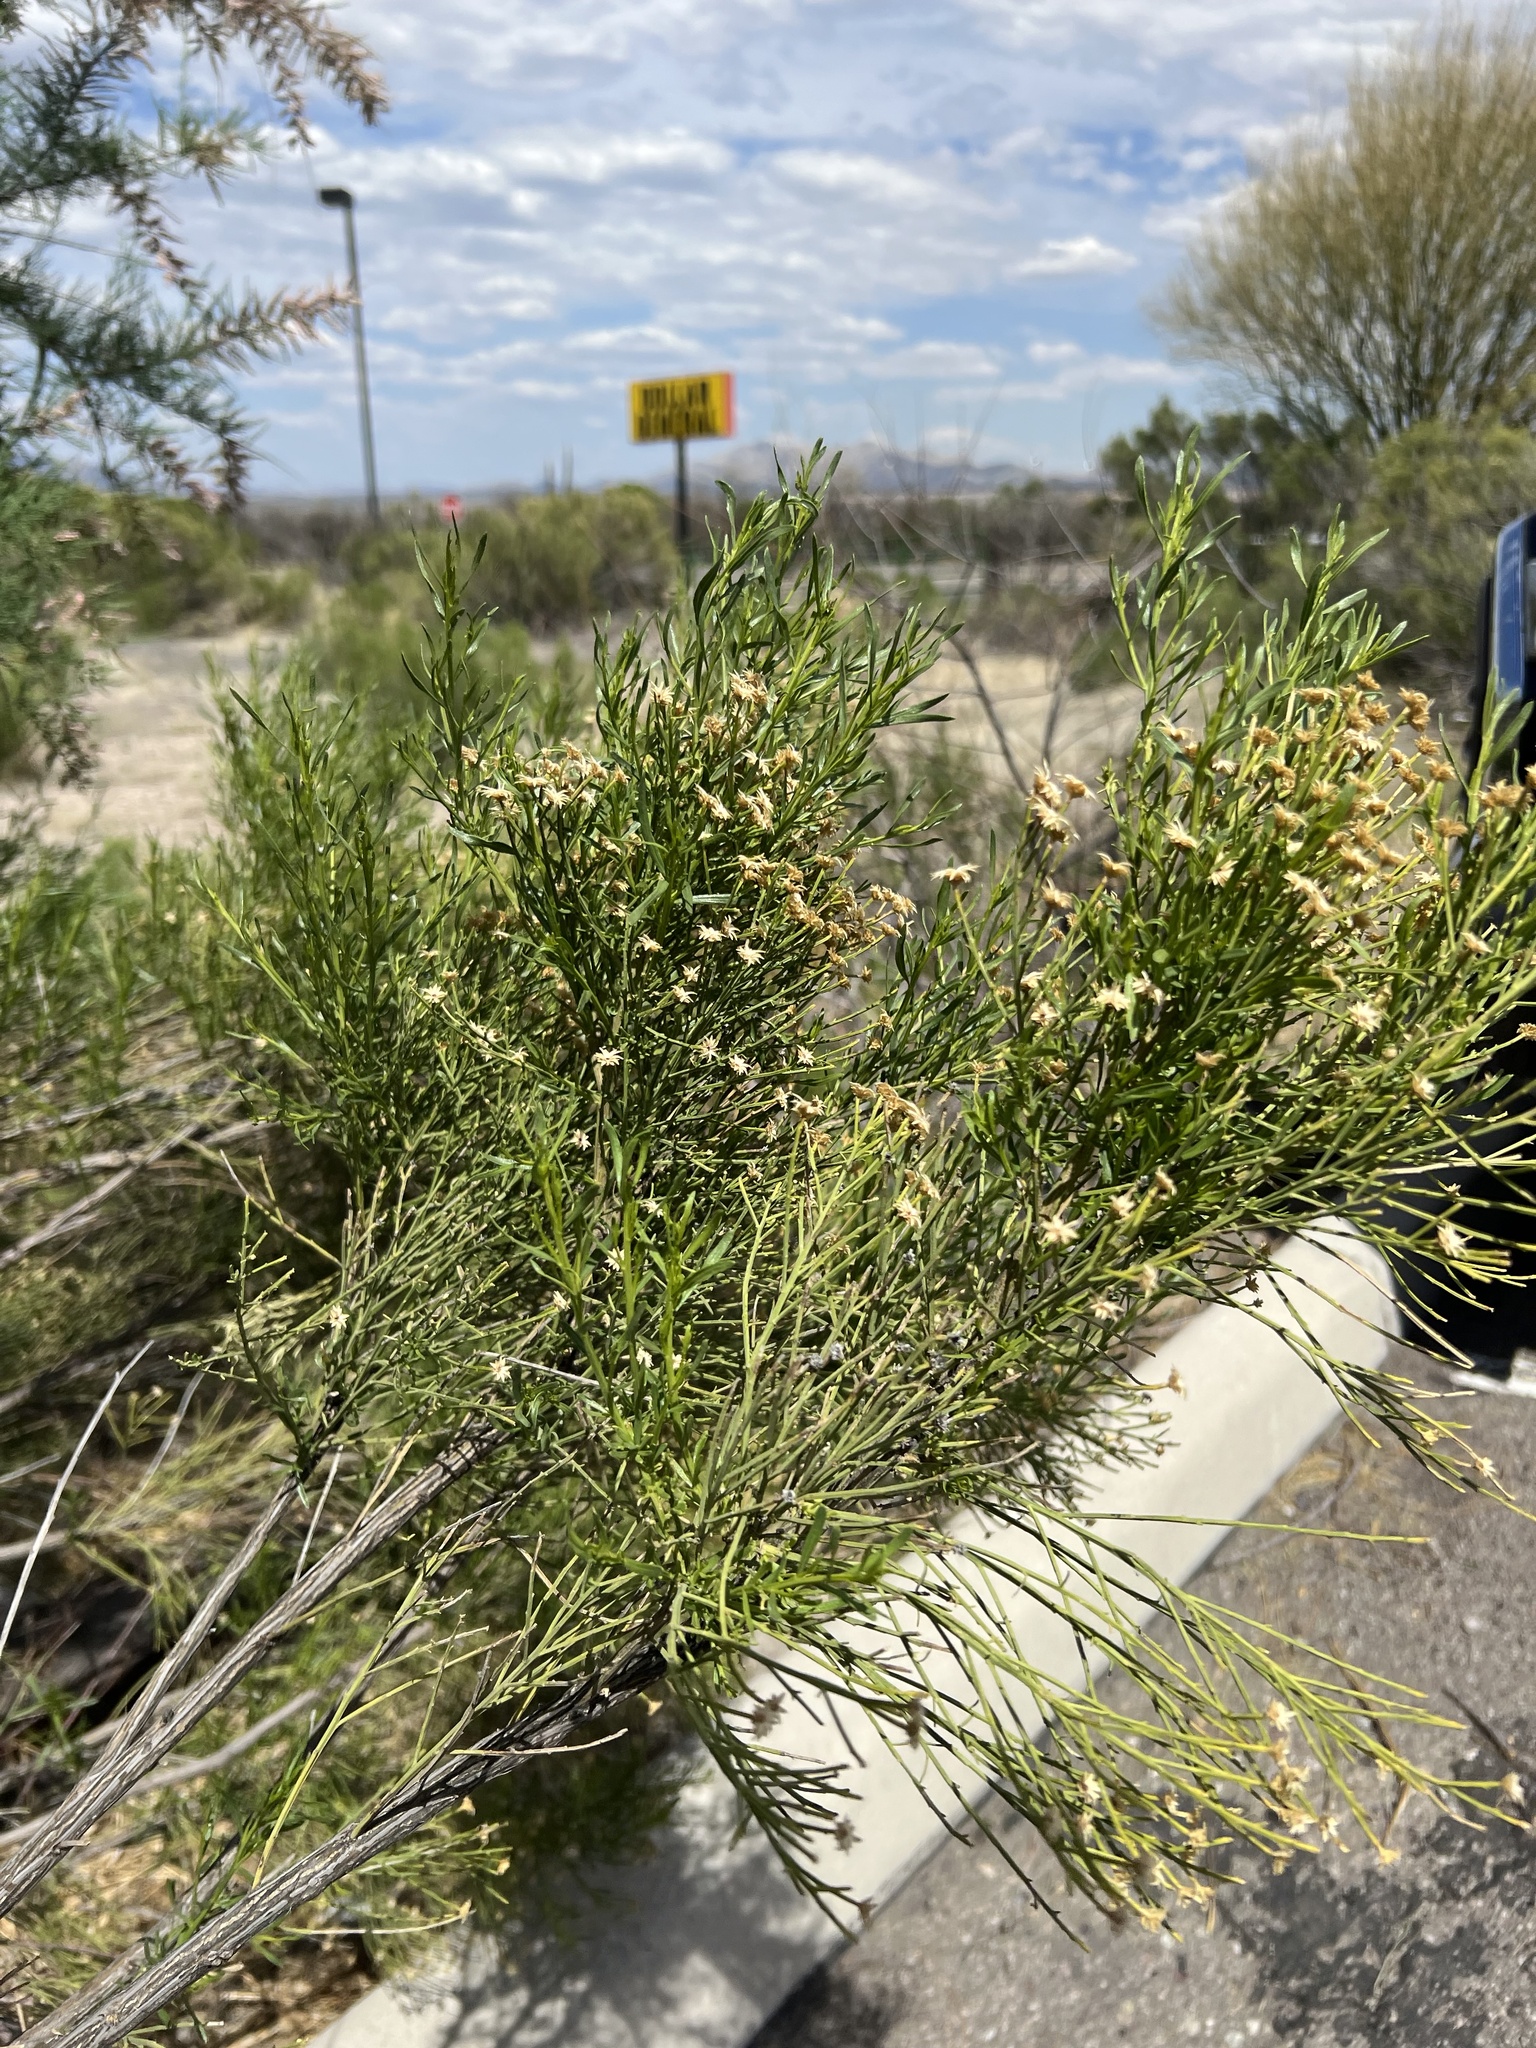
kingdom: Plantae
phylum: Tracheophyta
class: Magnoliopsida
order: Asterales
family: Asteraceae
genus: Baccharis
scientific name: Baccharis sarothroides
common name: Desert-broom
